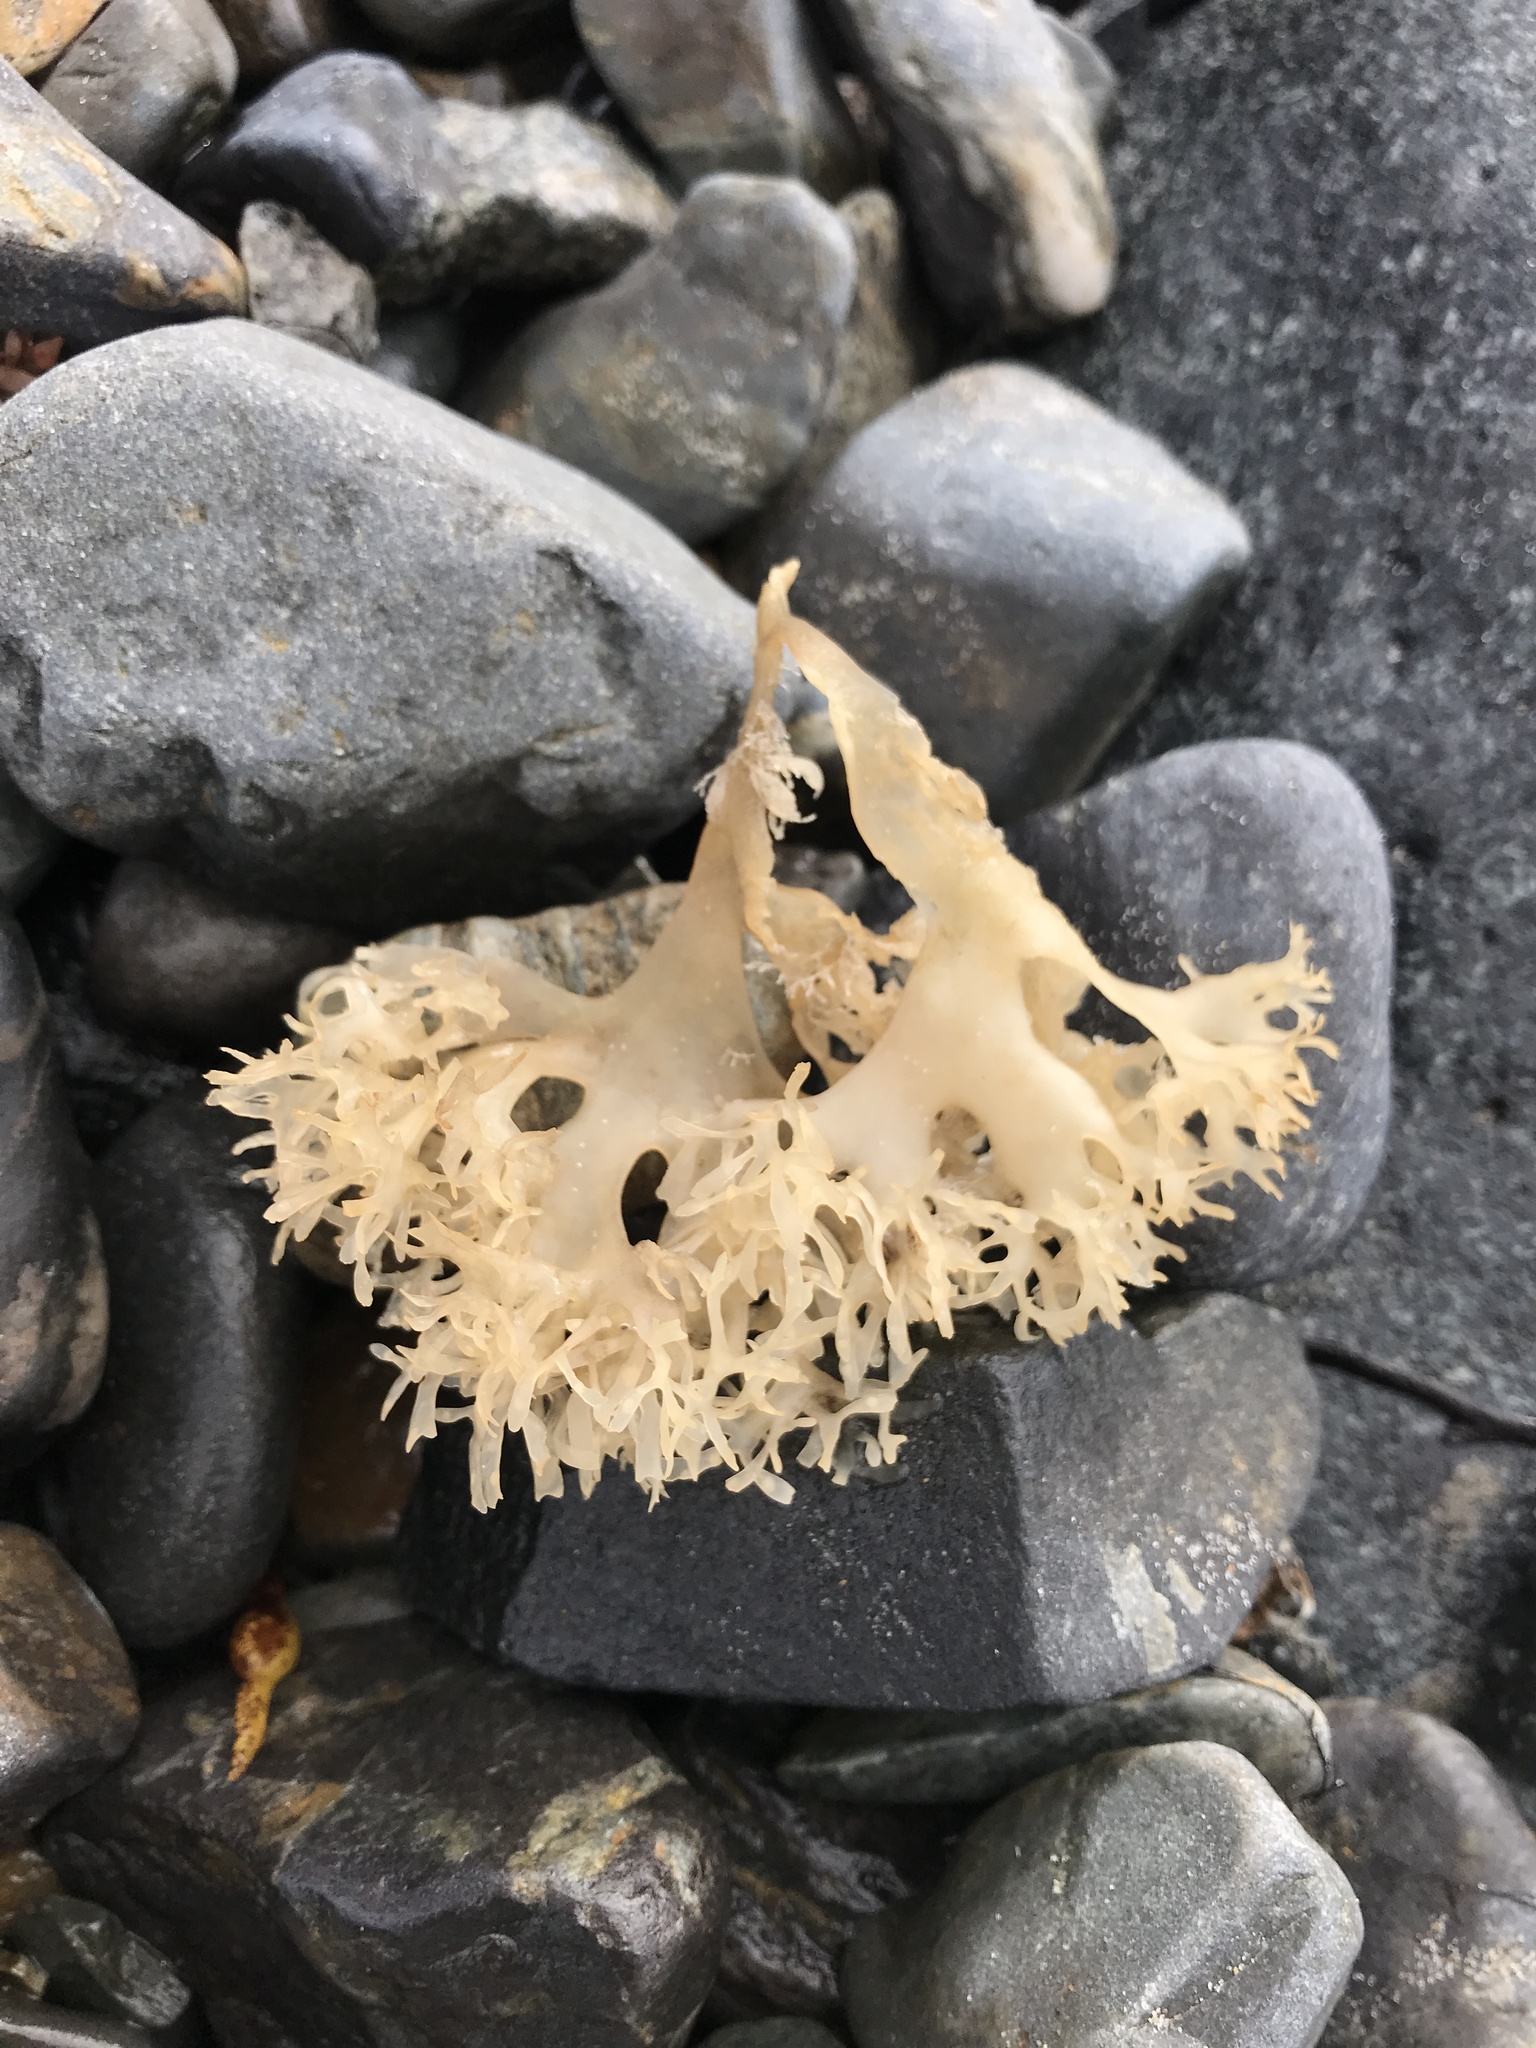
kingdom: Plantae
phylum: Rhodophyta
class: Florideophyceae
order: Gigartinales
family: Gigartinaceae
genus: Chondrus
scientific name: Chondrus crispus
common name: Carrageen
